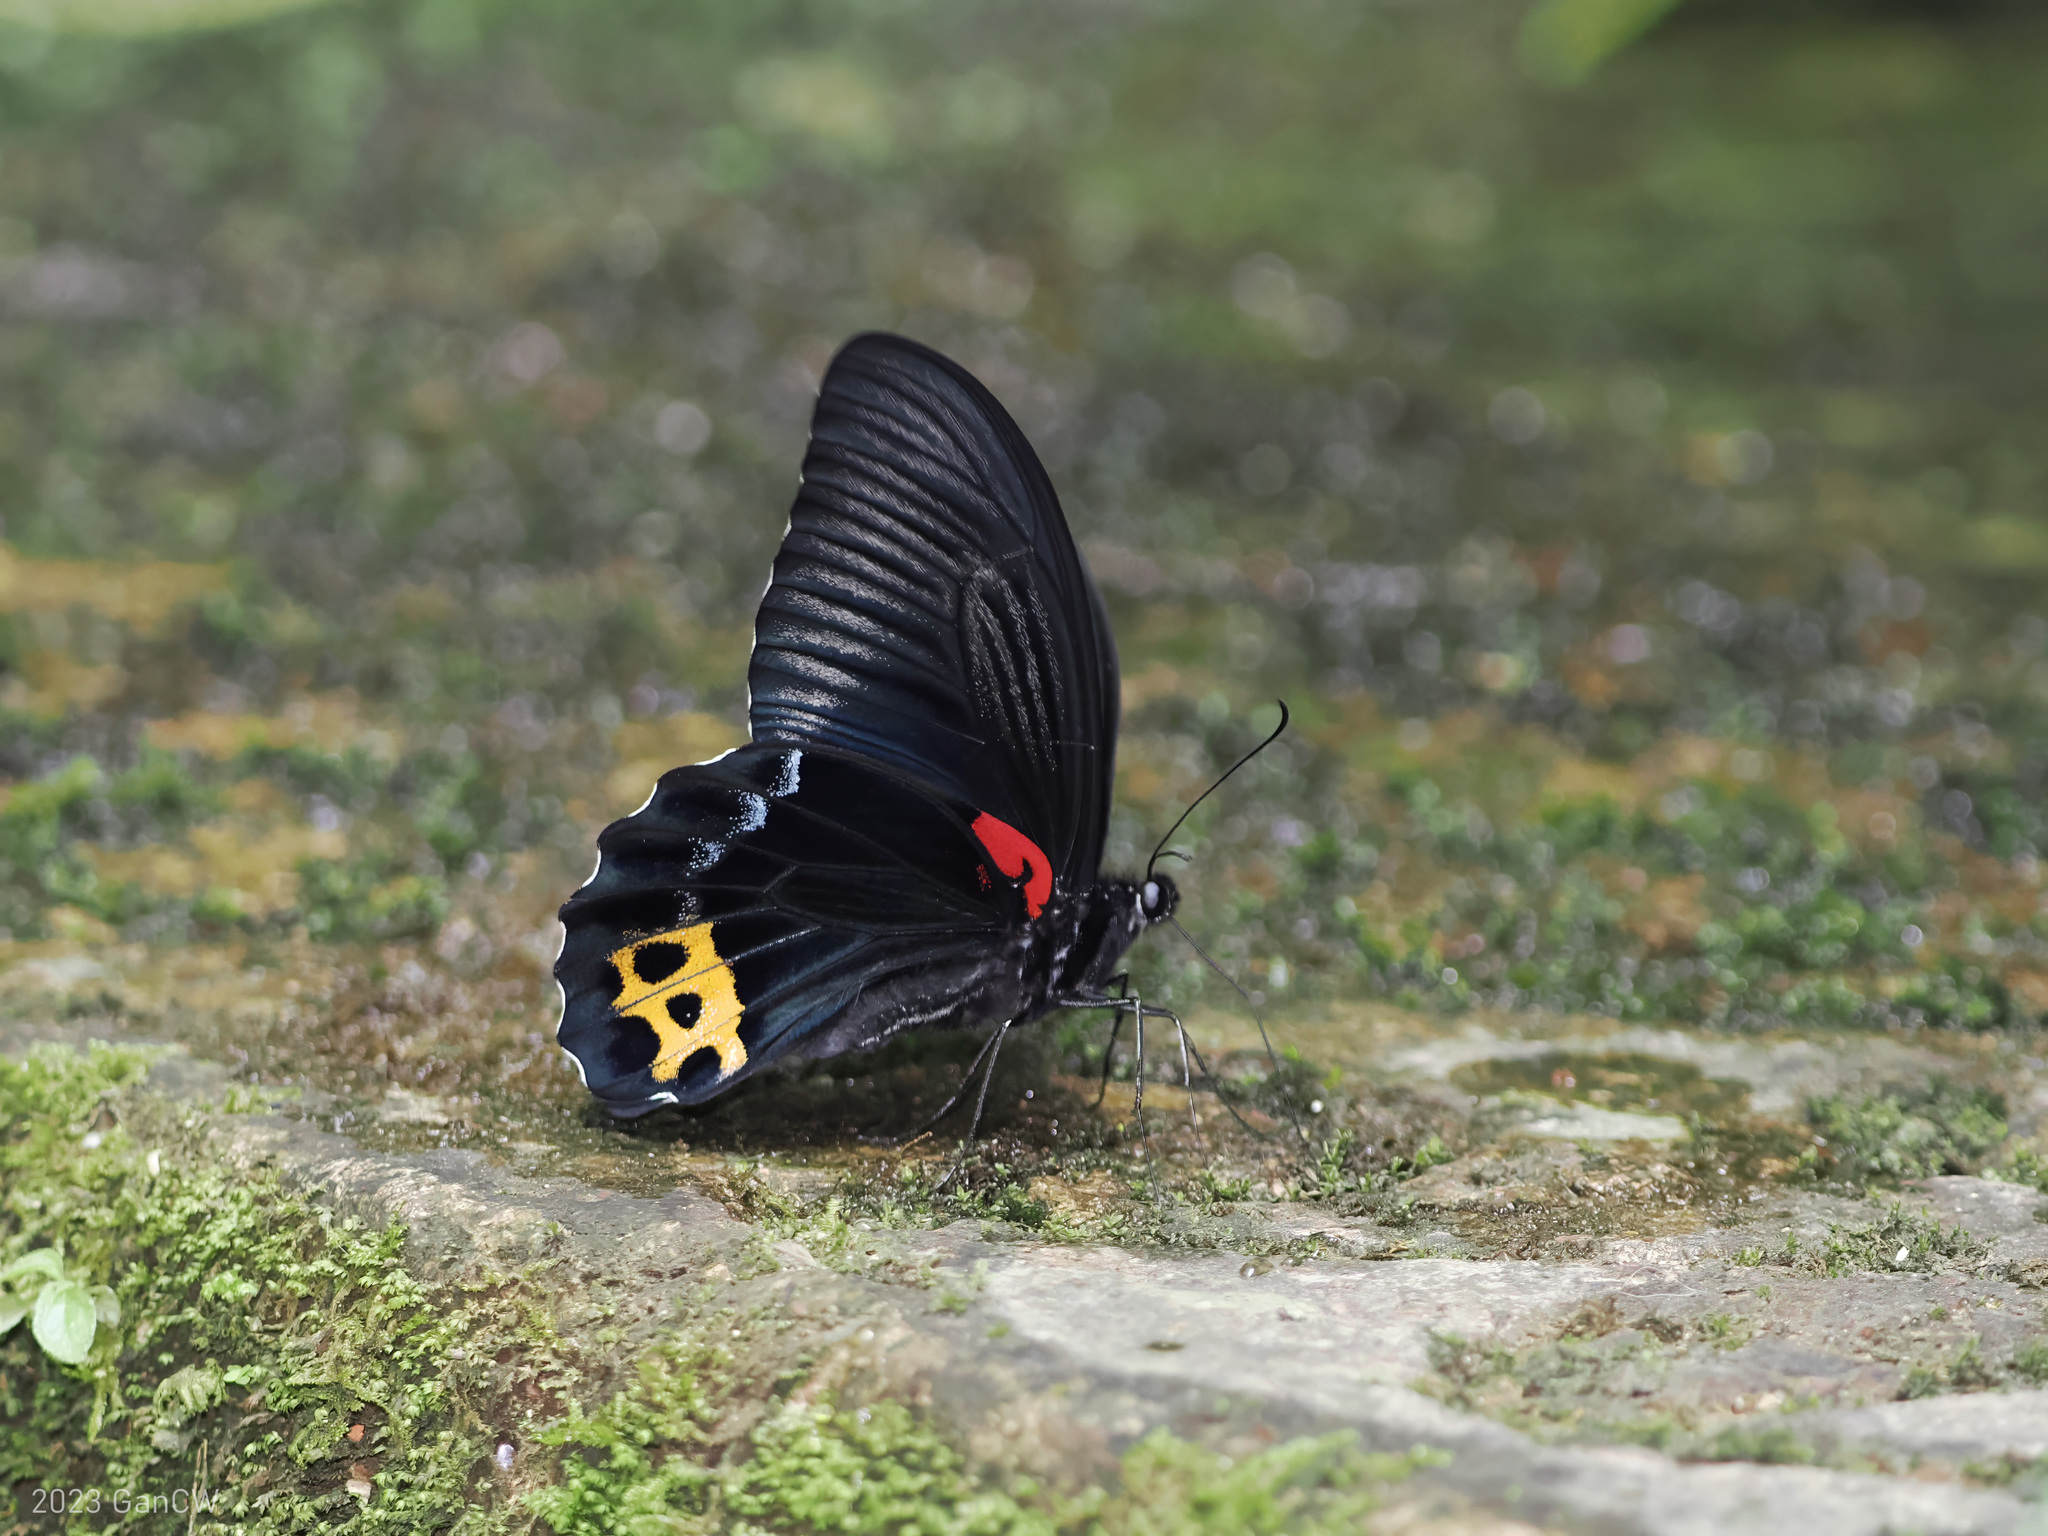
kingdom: Animalia
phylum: Arthropoda
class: Insecta
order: Lepidoptera
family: Papilionidae
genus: Papilio
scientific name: Papilio acheron
